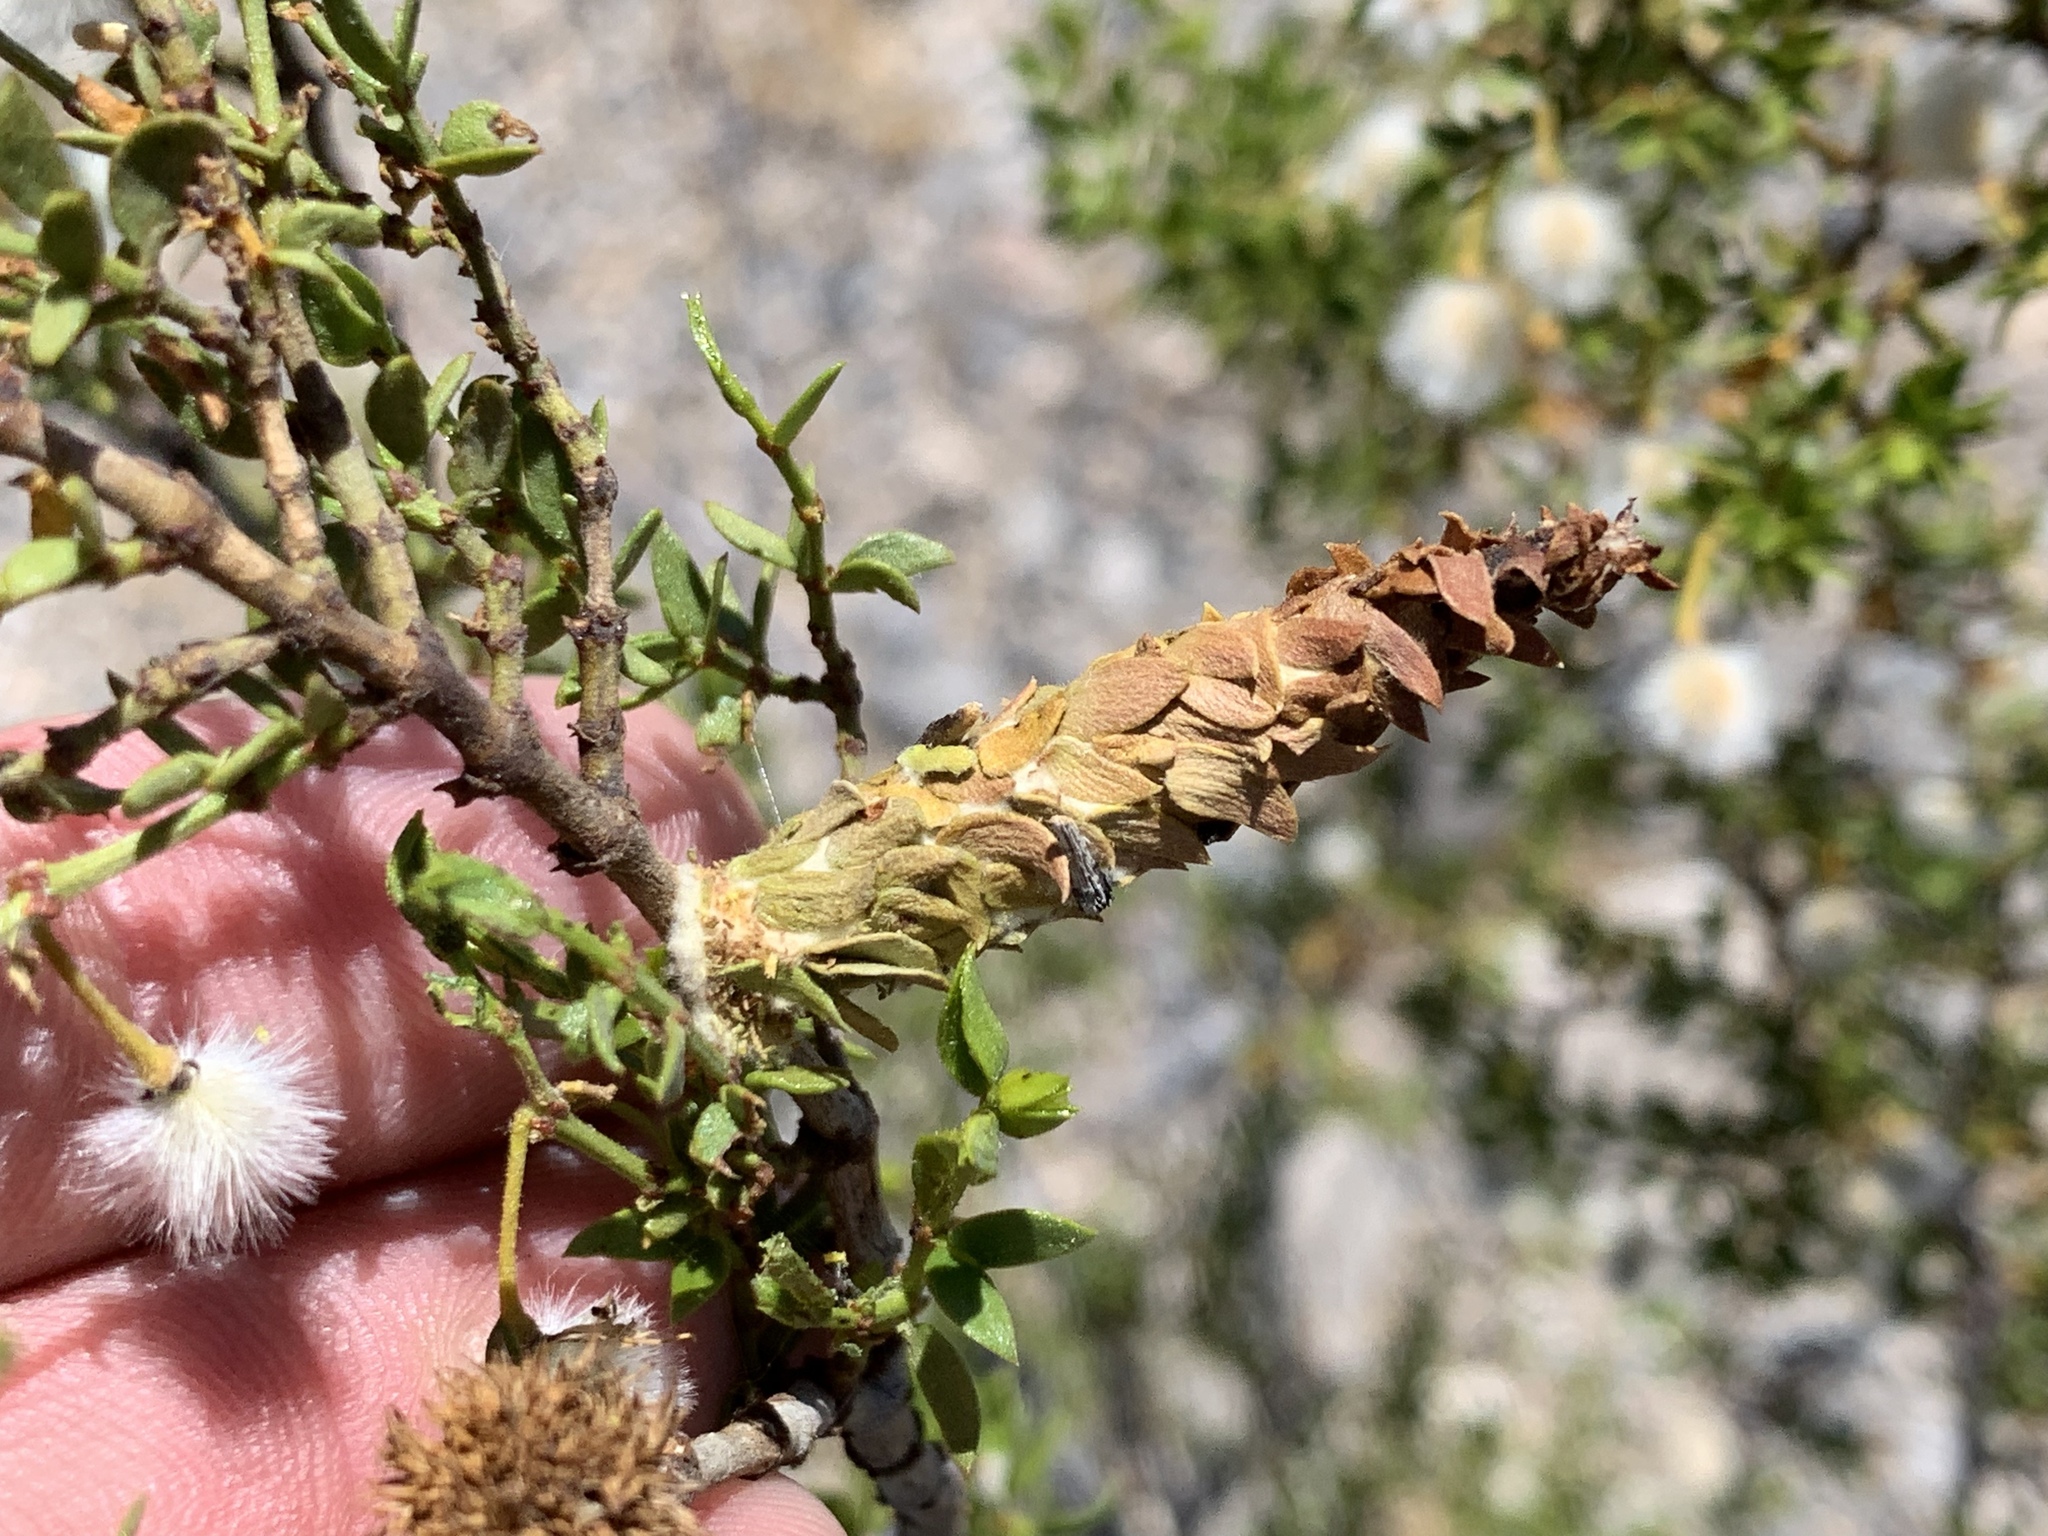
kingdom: Animalia
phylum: Arthropoda
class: Insecta
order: Lepidoptera
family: Psychidae
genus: Thyridopteryx
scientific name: Thyridopteryx meadii
